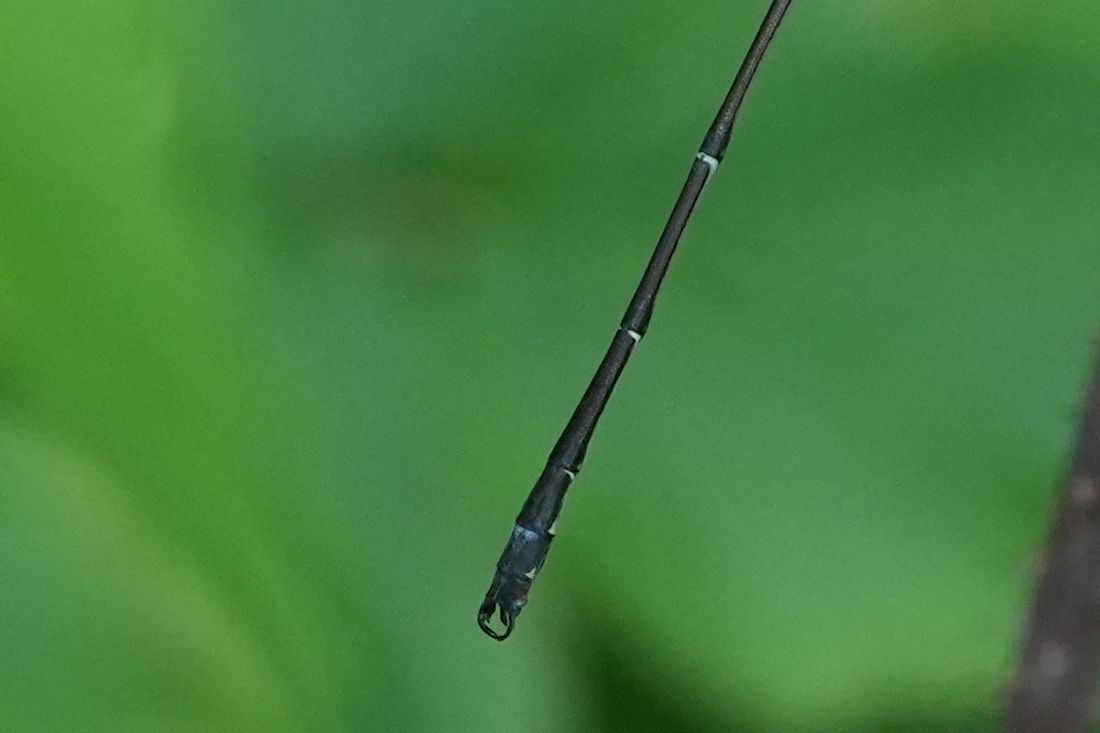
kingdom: Animalia
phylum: Arthropoda
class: Insecta
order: Odonata
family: Lestidae
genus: Lestes
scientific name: Lestes rectangularis
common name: Slender spreadwing
